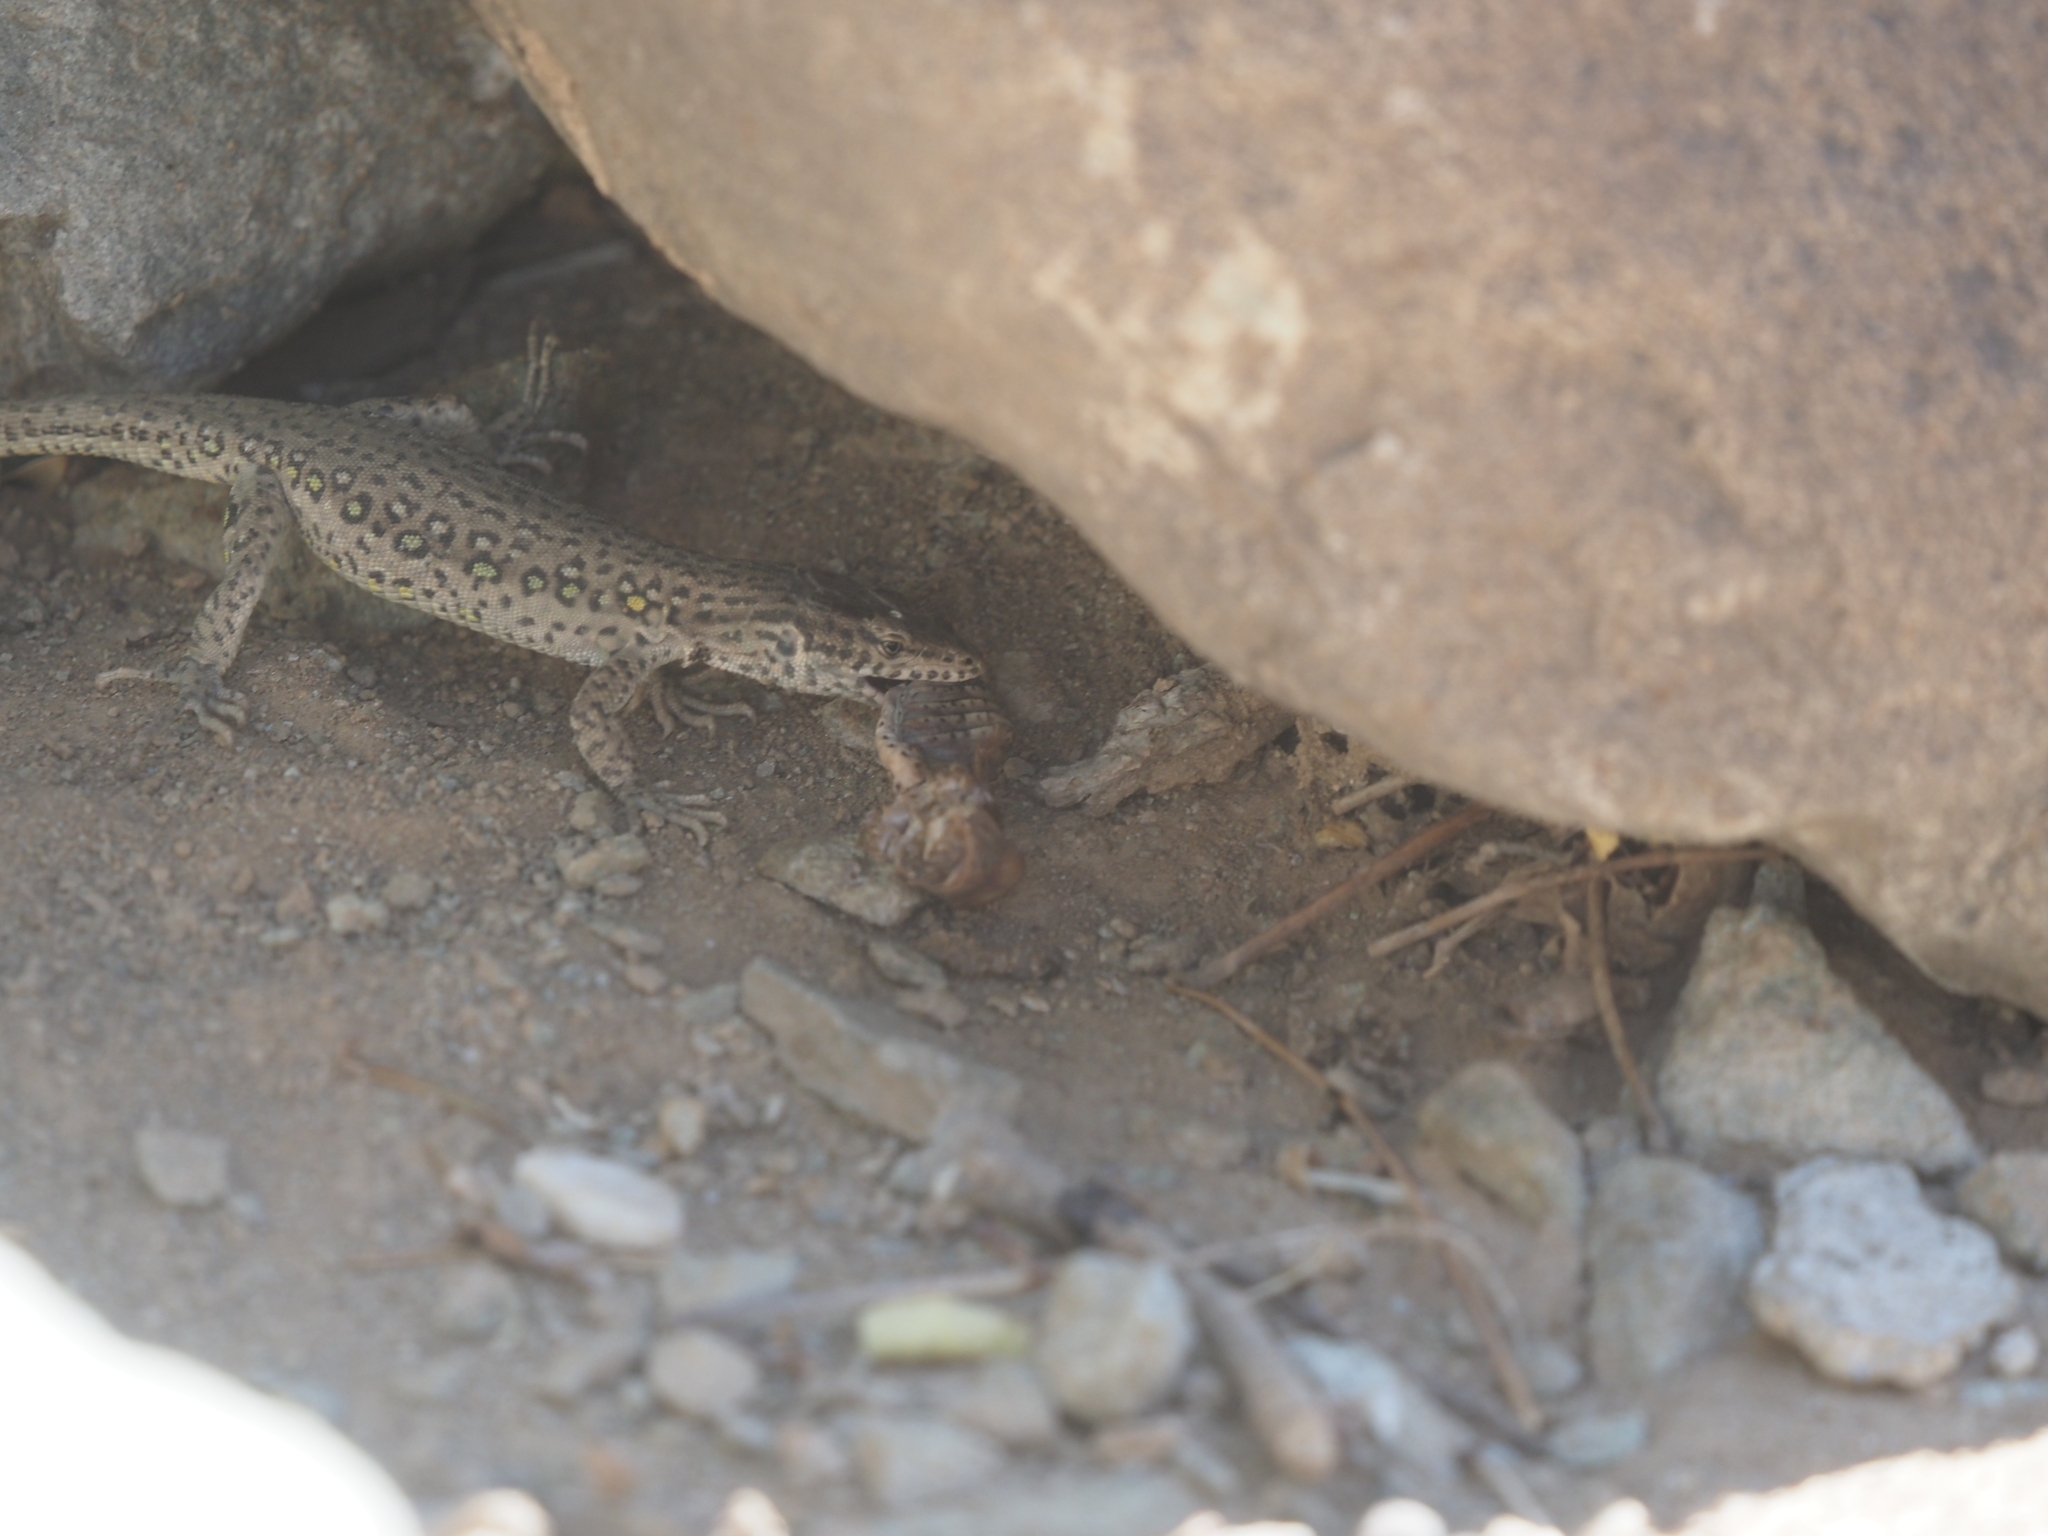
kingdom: Animalia
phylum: Chordata
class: Squamata
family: Lacertidae
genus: Eremias
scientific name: Eremias multiocellata
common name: Multi-ocellated racerunner
